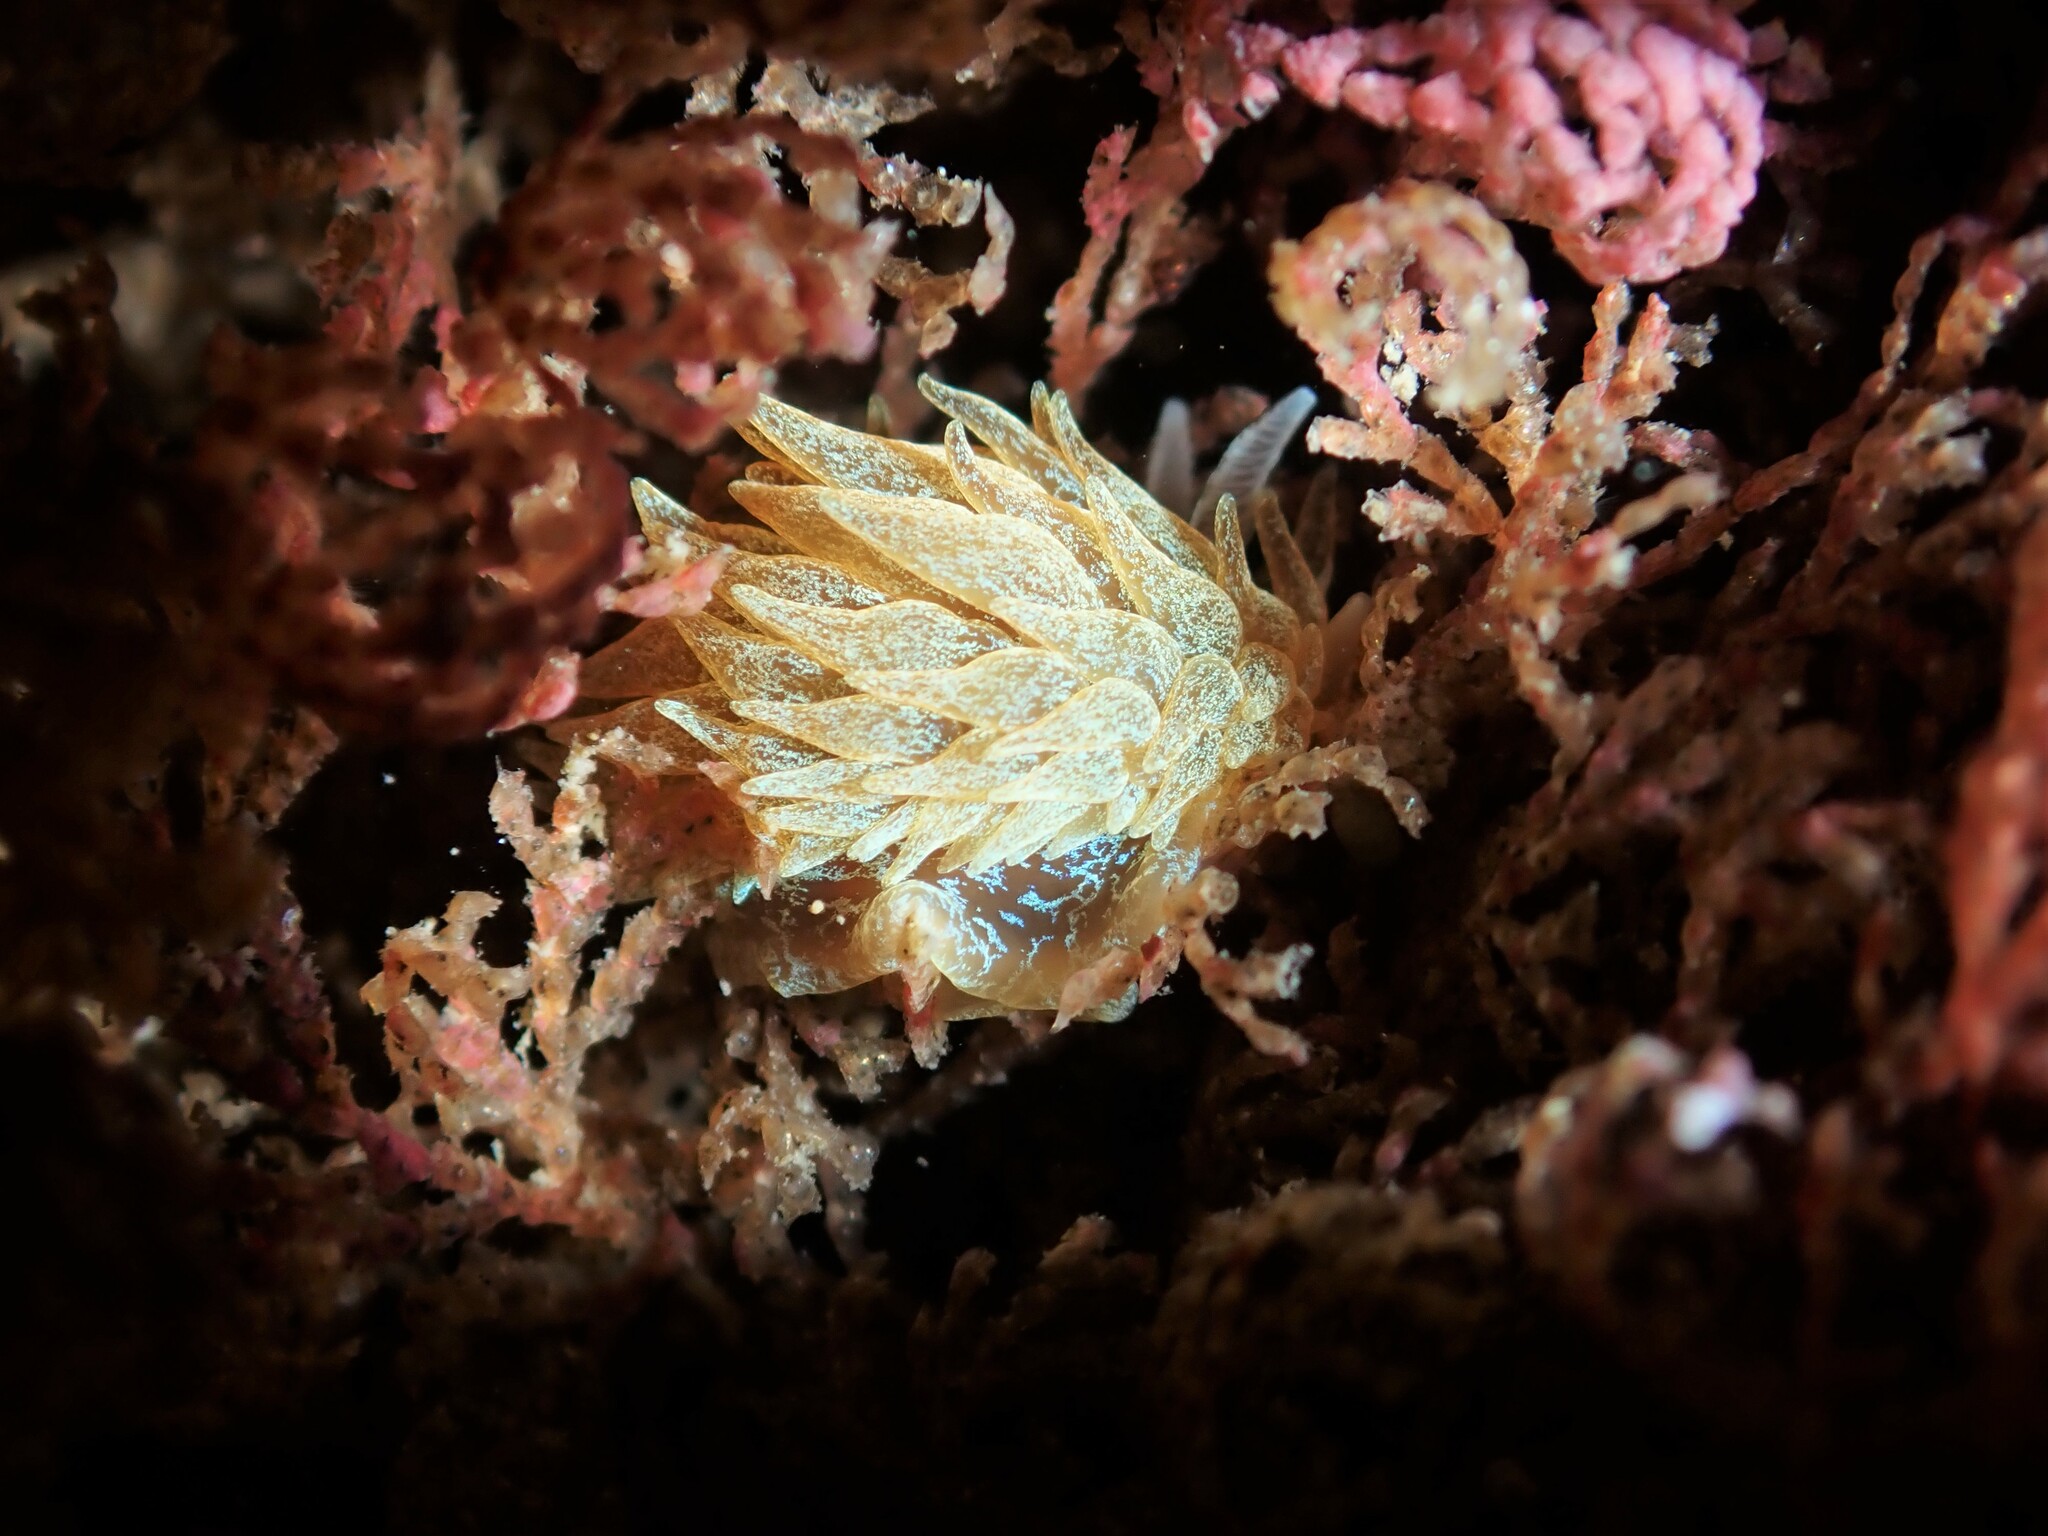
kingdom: Animalia
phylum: Mollusca
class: Gastropoda
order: Nudibranchia
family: Janolidae
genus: Janolus
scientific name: Janolus ignis
